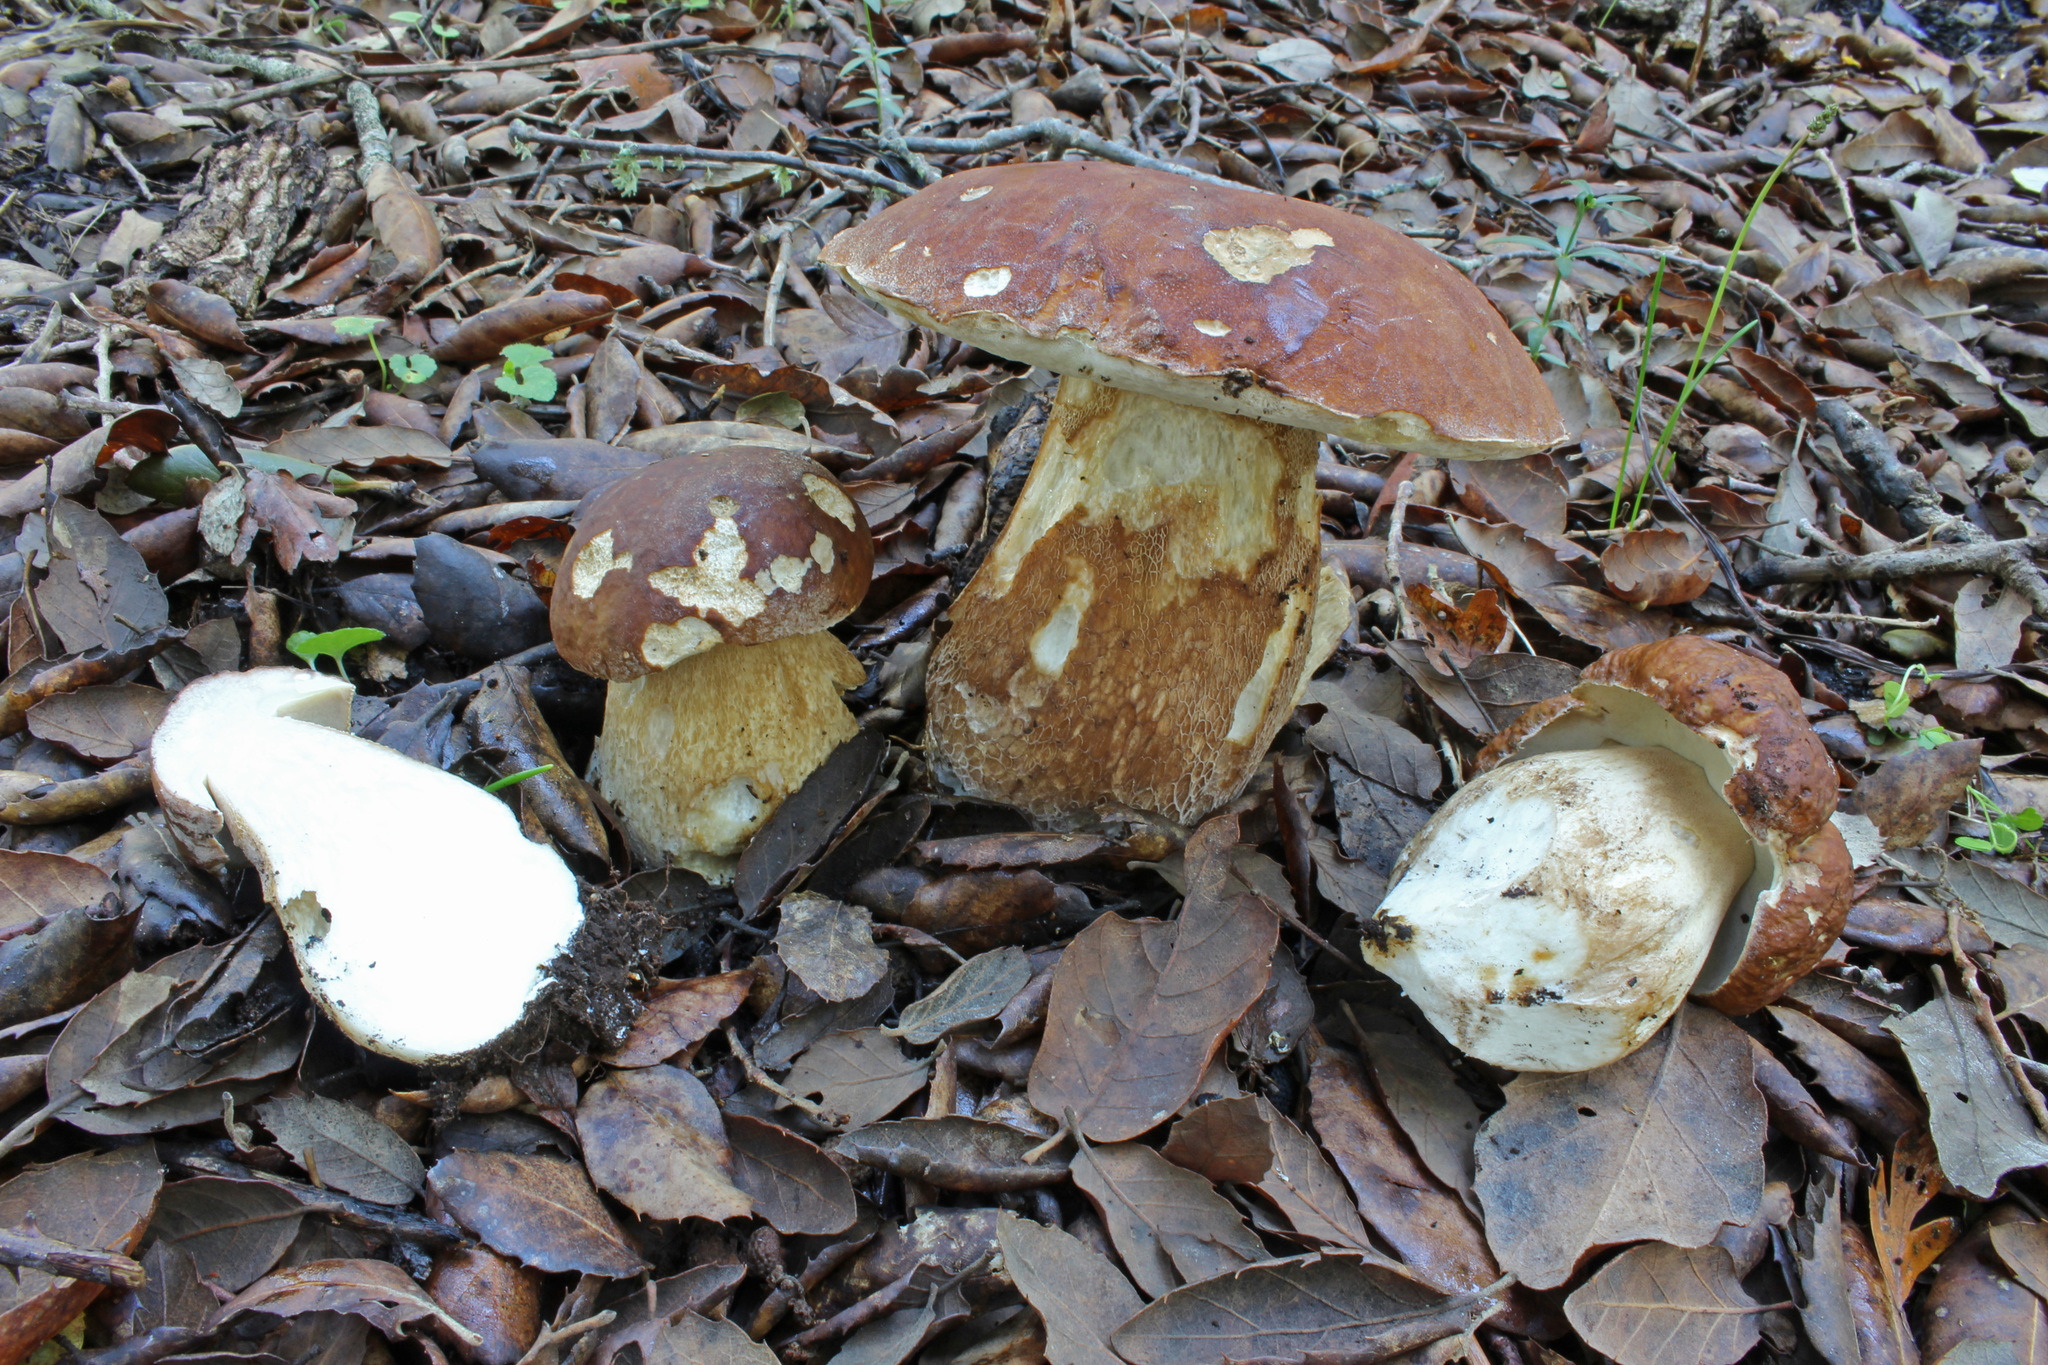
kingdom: Fungi
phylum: Basidiomycota
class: Agaricomycetes
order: Boletales
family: Boletaceae
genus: Boletus
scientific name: Boletus reticulatus
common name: Summer bolete
